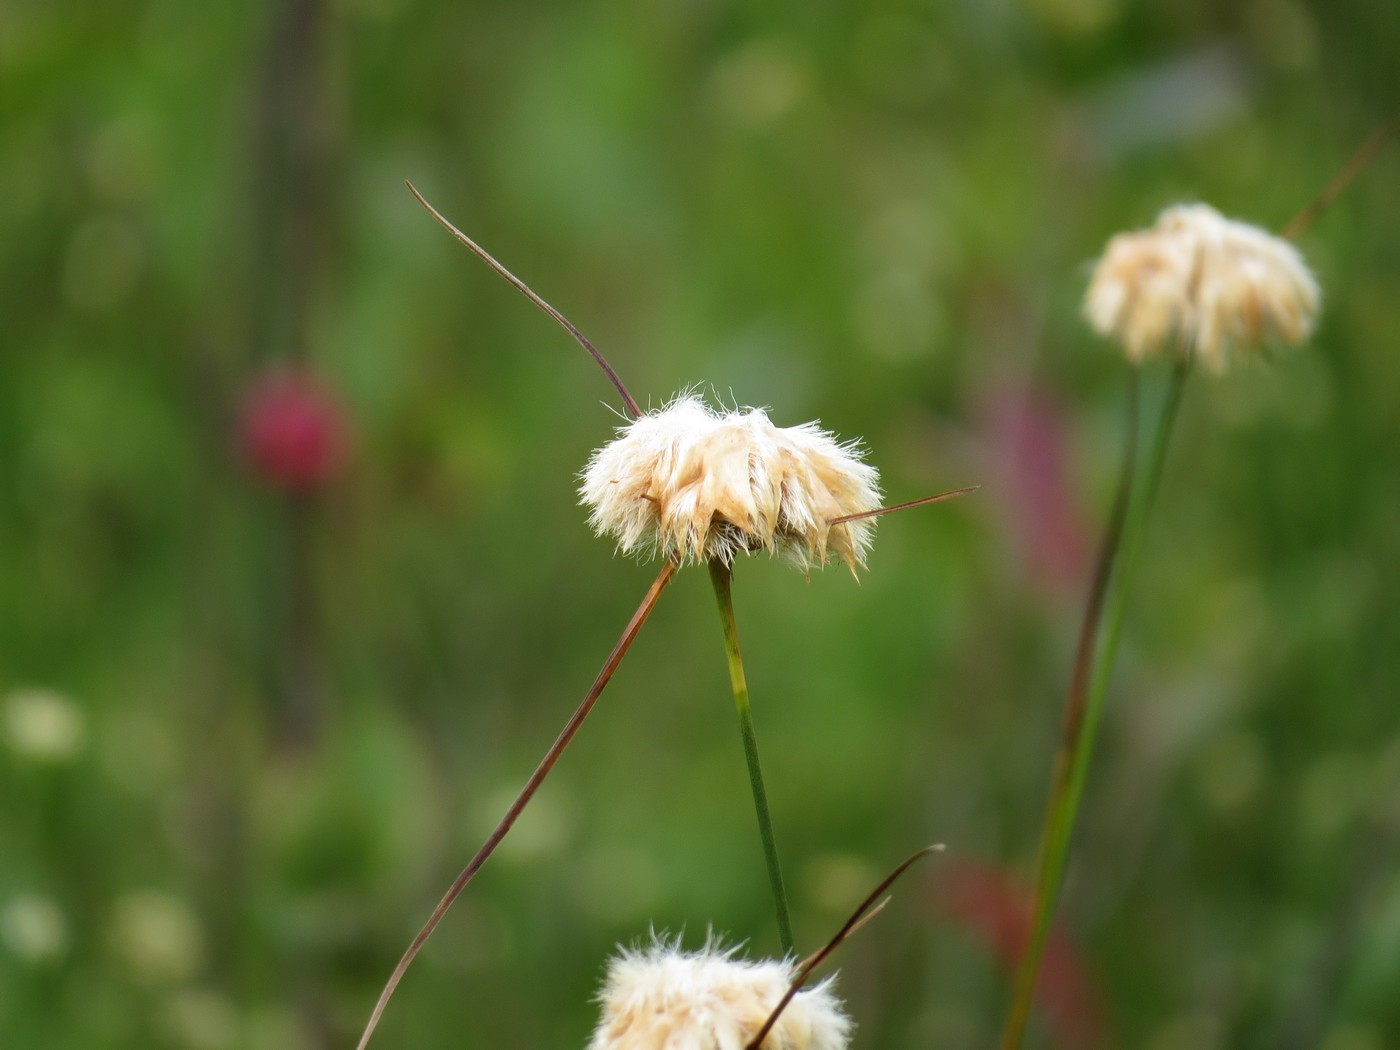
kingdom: Plantae
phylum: Tracheophyta
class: Liliopsida
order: Poales
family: Cyperaceae
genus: Eriophorum
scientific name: Eriophorum virginicum
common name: Tawny cottongrass
